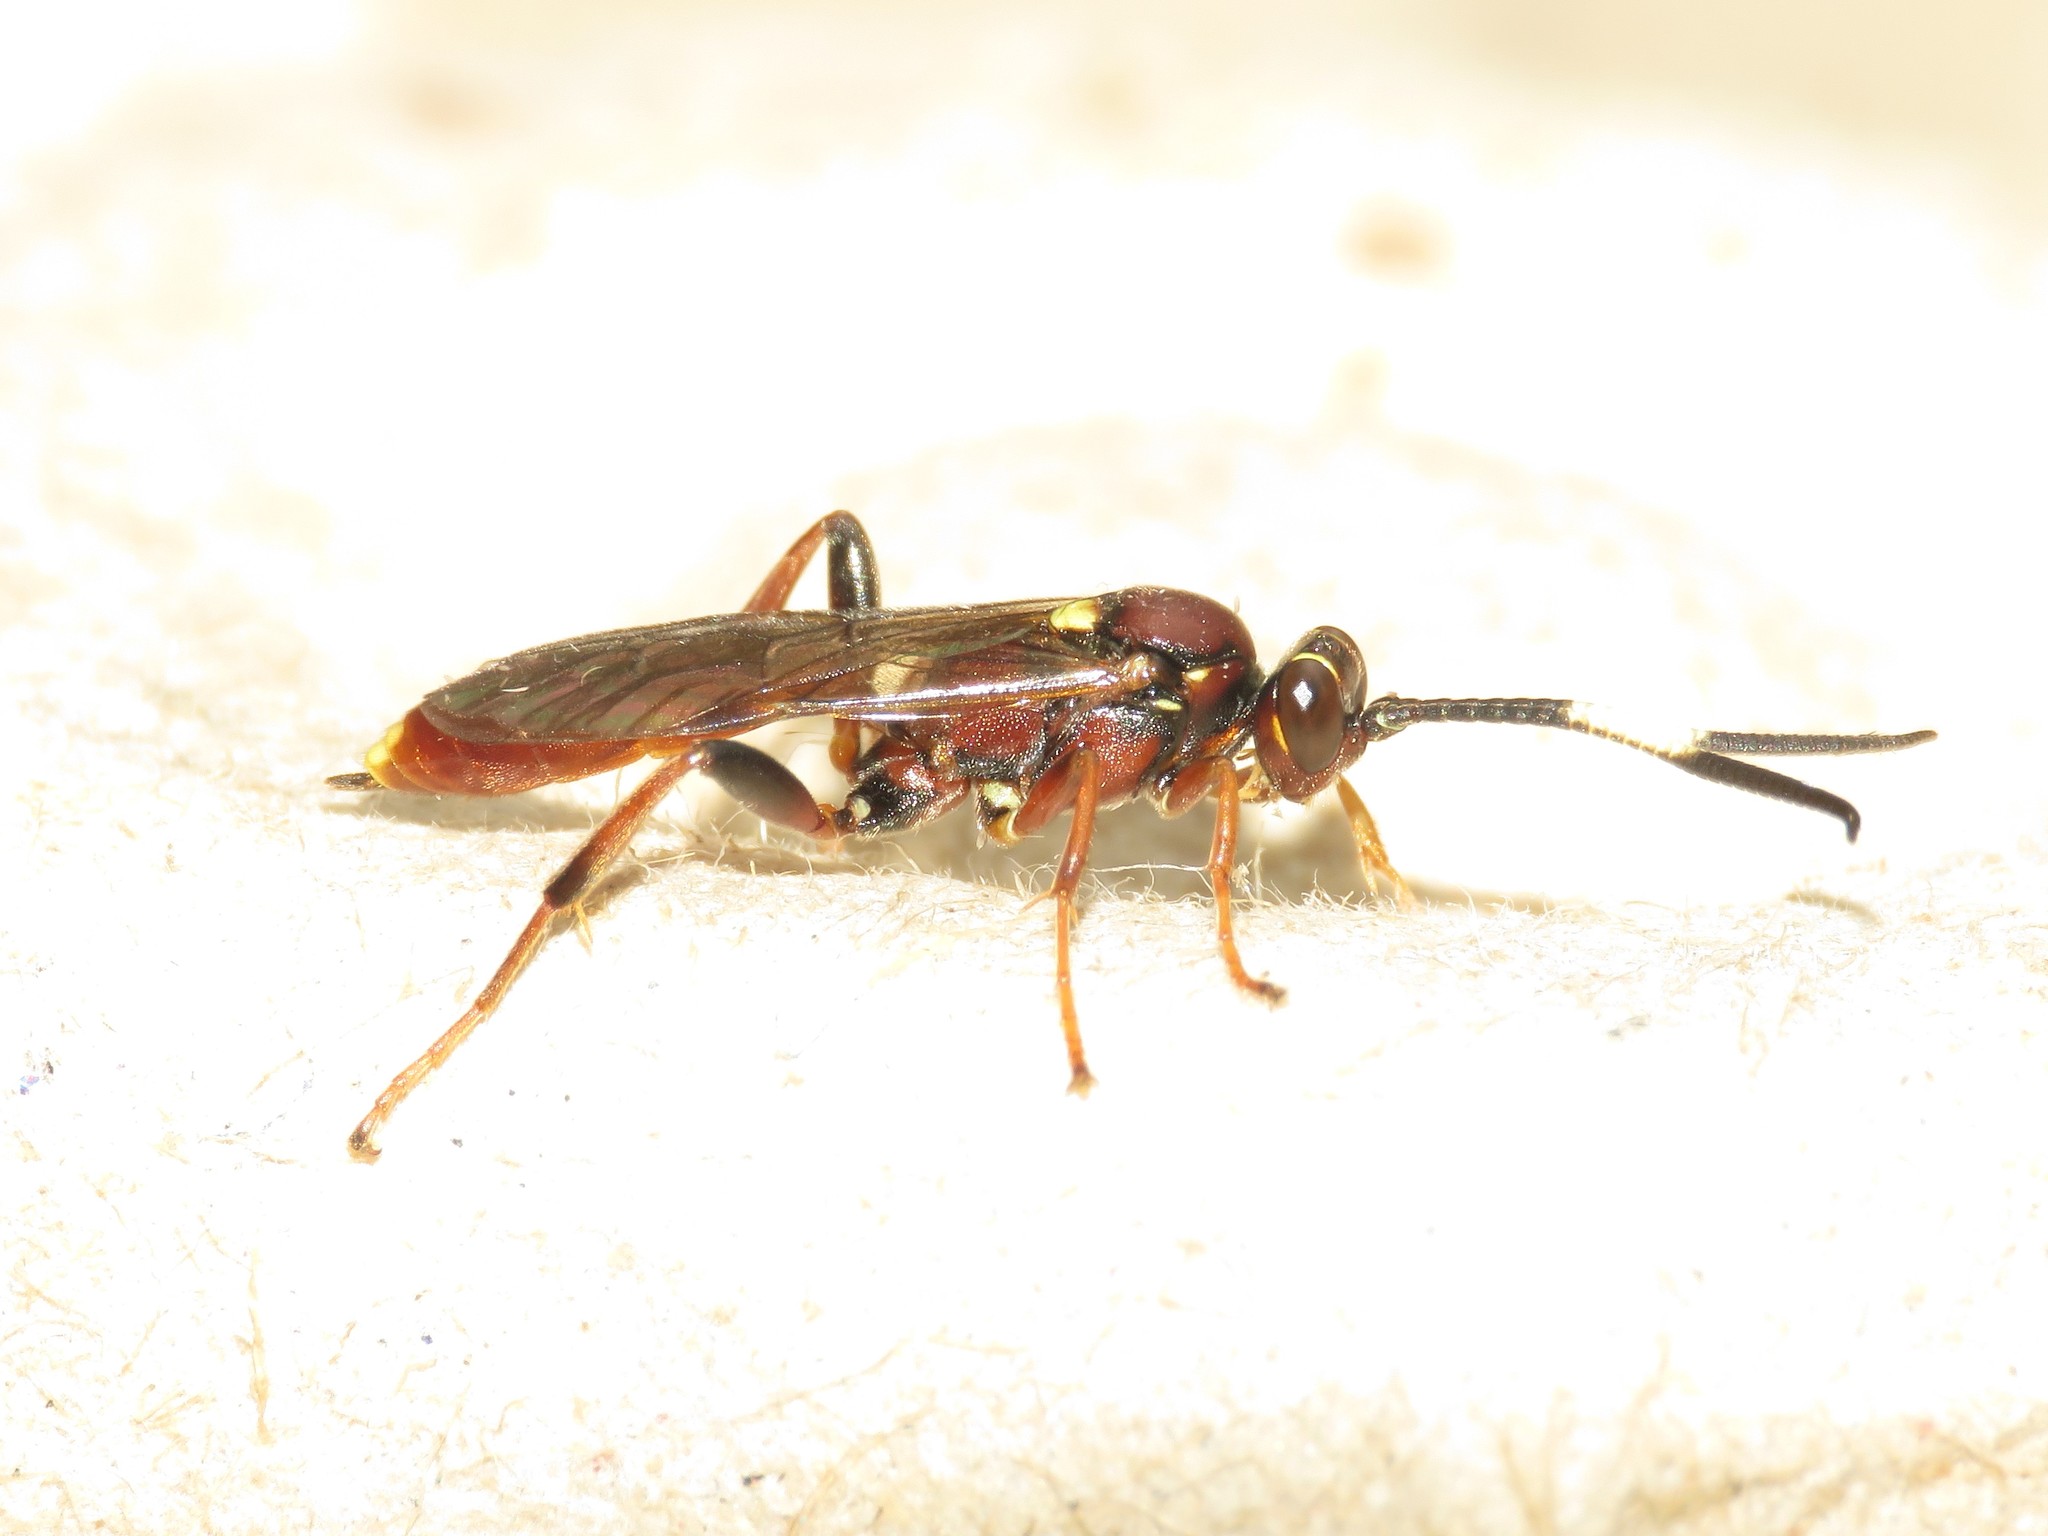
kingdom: Animalia
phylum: Arthropoda
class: Insecta
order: Hymenoptera
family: Ichneumonidae
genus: Melanichneumon
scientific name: Melanichneumon disparilis
